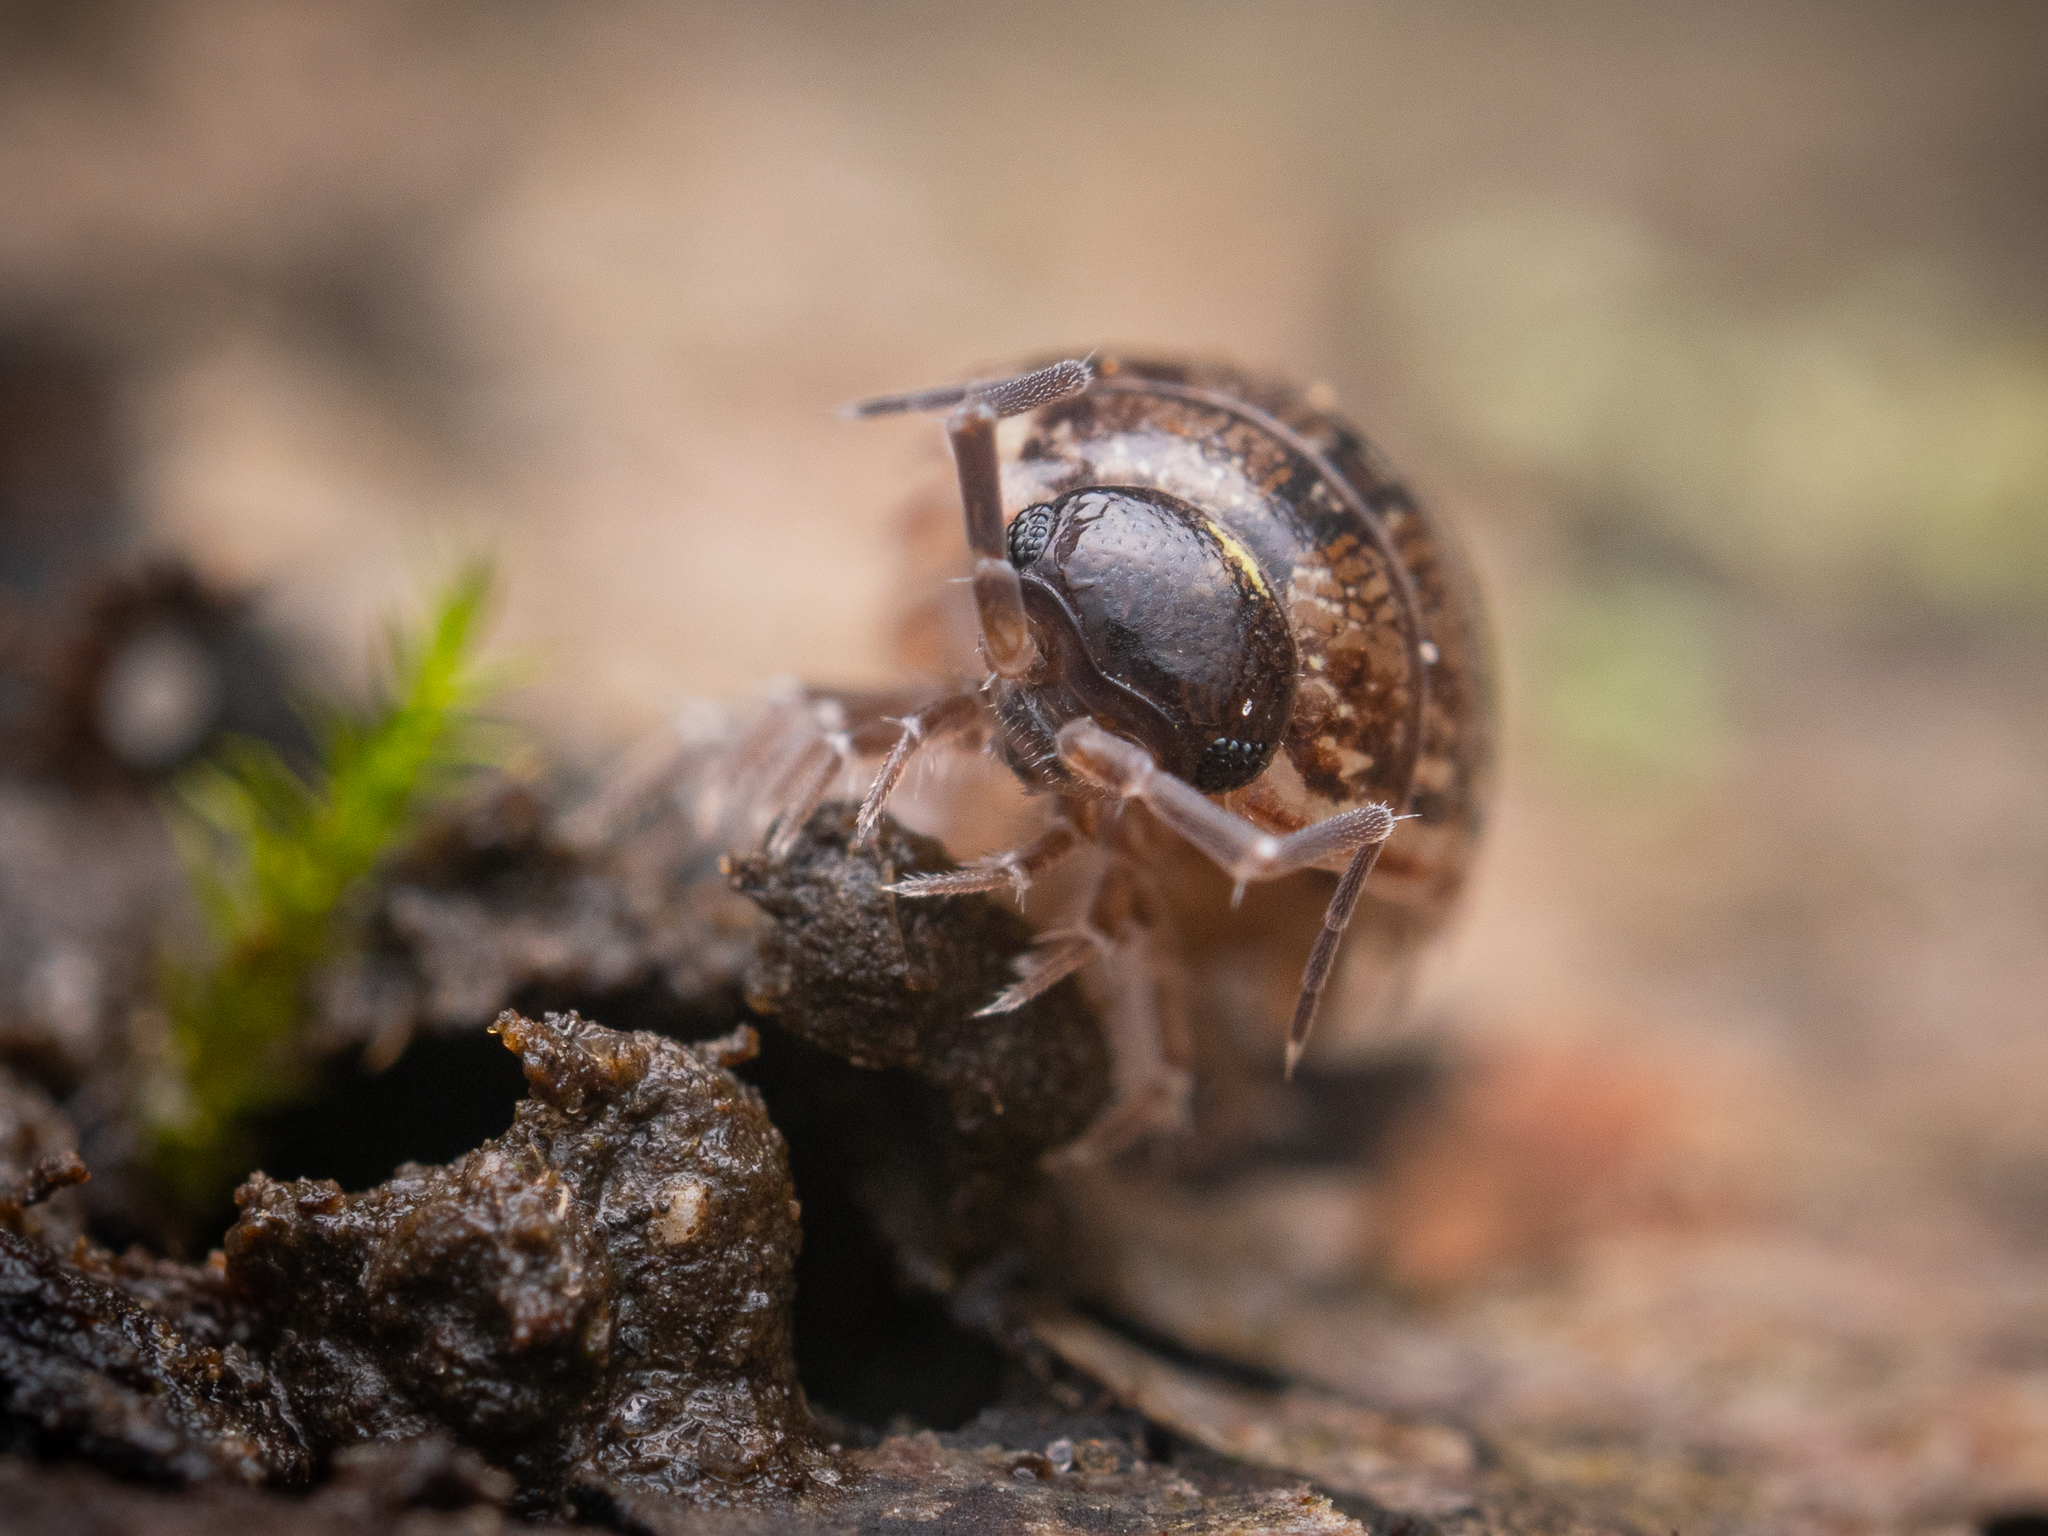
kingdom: Animalia
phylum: Arthropoda
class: Malacostraca
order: Isopoda
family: Philosciidae
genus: Philoscia
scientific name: Philoscia muscorum
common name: Common striped woodlouse
